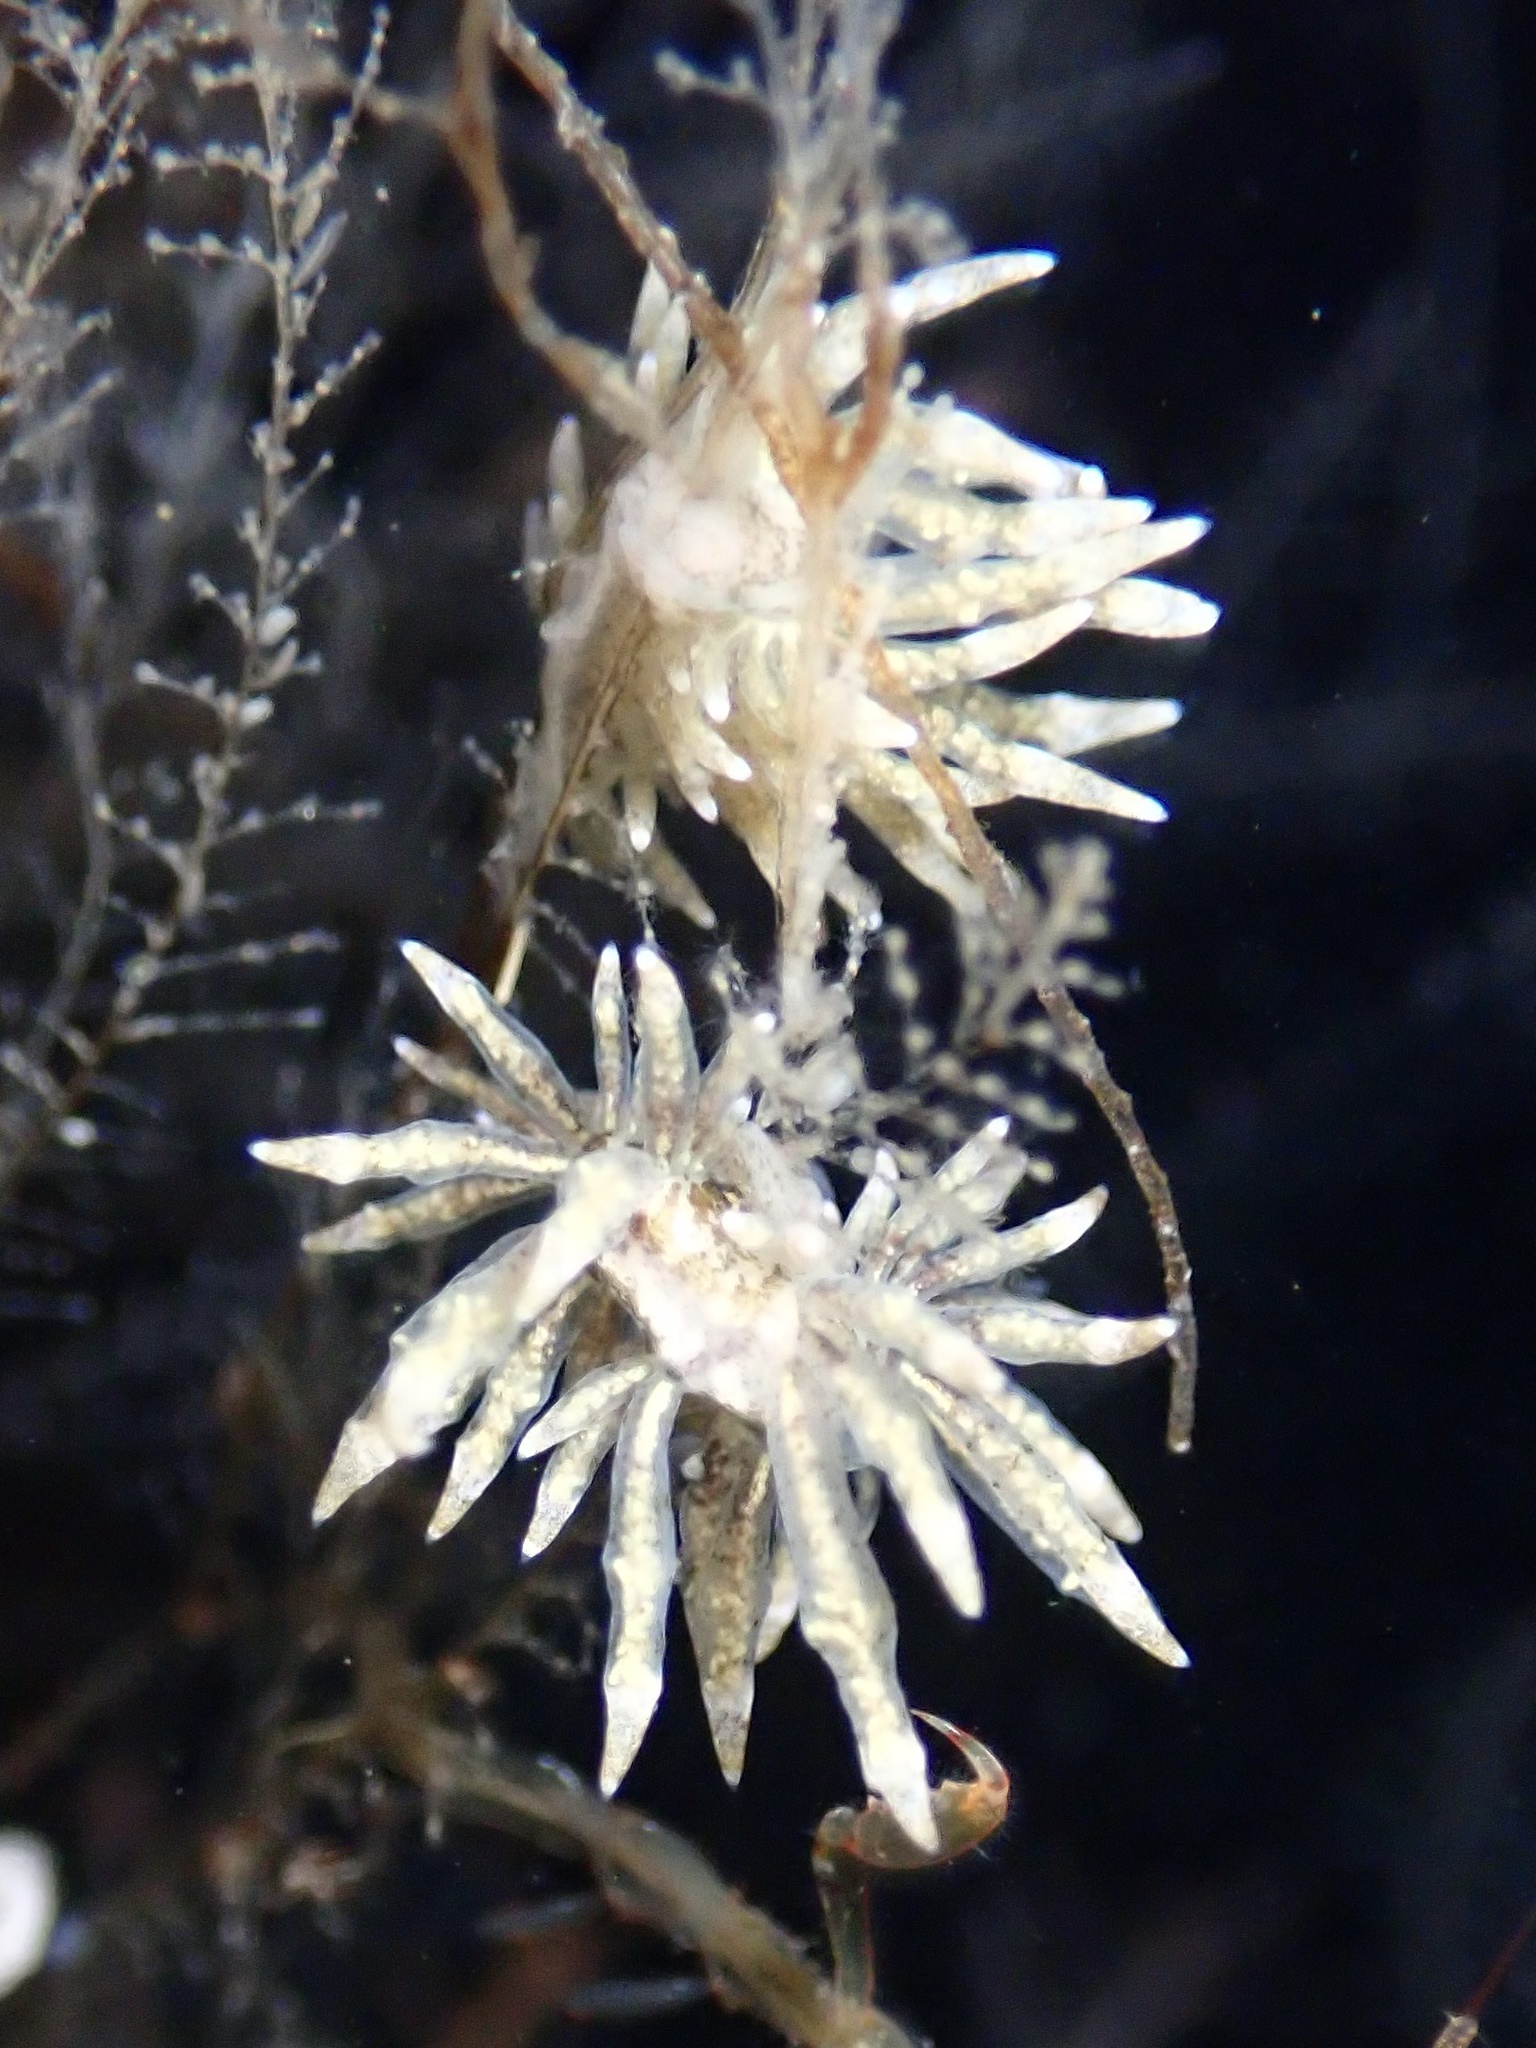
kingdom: Animalia
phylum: Mollusca
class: Gastropoda
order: Nudibranchia
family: Eubranchidae
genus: Eubranchus
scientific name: Eubranchus rustyus
